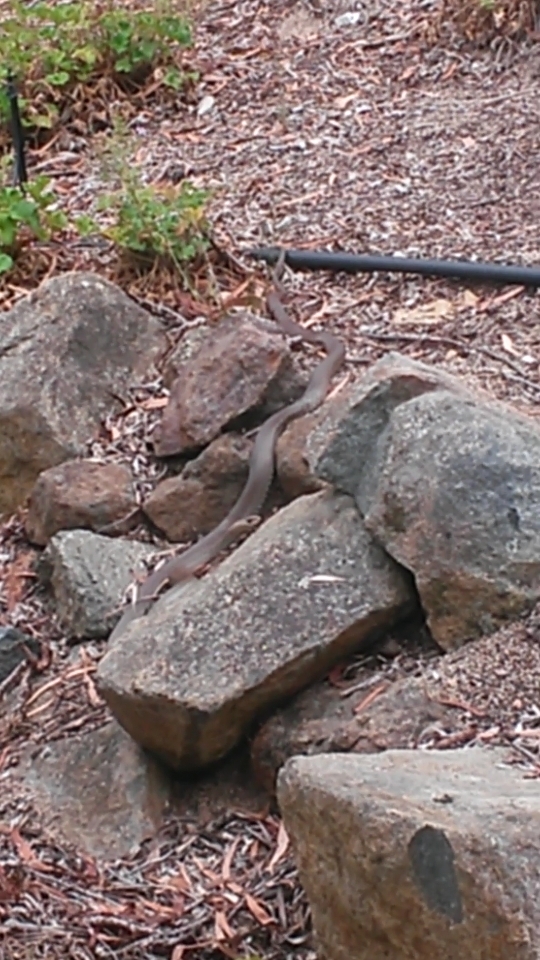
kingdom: Animalia
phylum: Chordata
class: Squamata
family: Elapidae
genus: Pseudonaja
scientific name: Pseudonaja textilis
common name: Eastern brown snake
